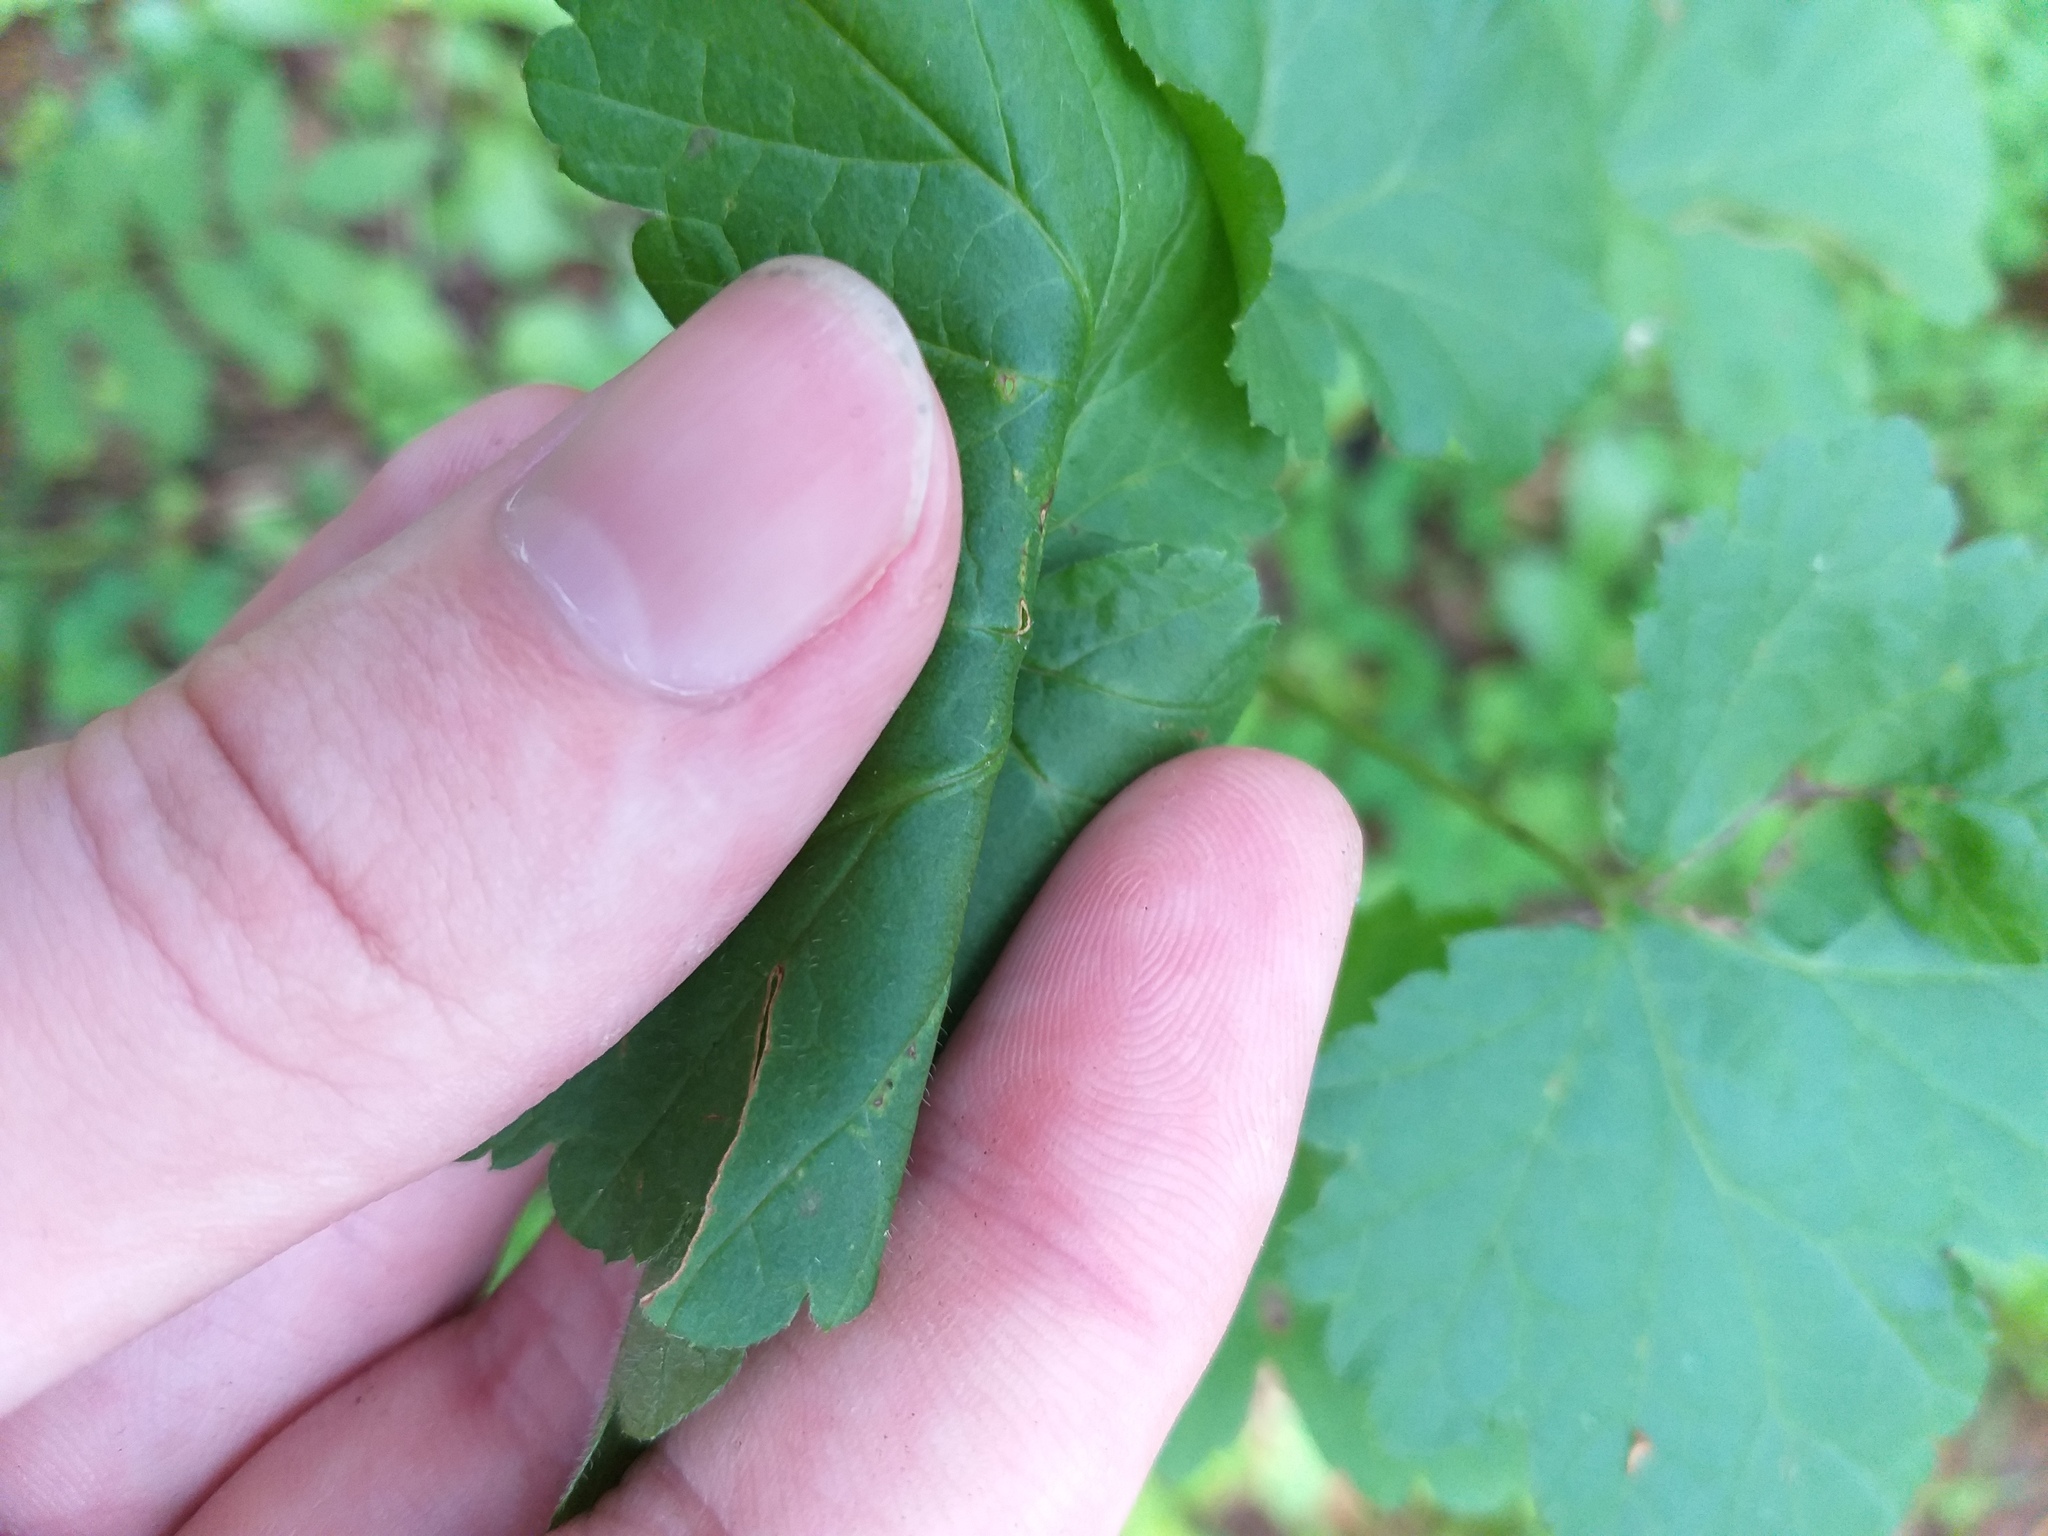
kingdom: Plantae
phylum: Tracheophyta
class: Magnoliopsida
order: Saxifragales
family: Grossulariaceae
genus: Ribes
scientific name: Ribes rubrum
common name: Red currant
